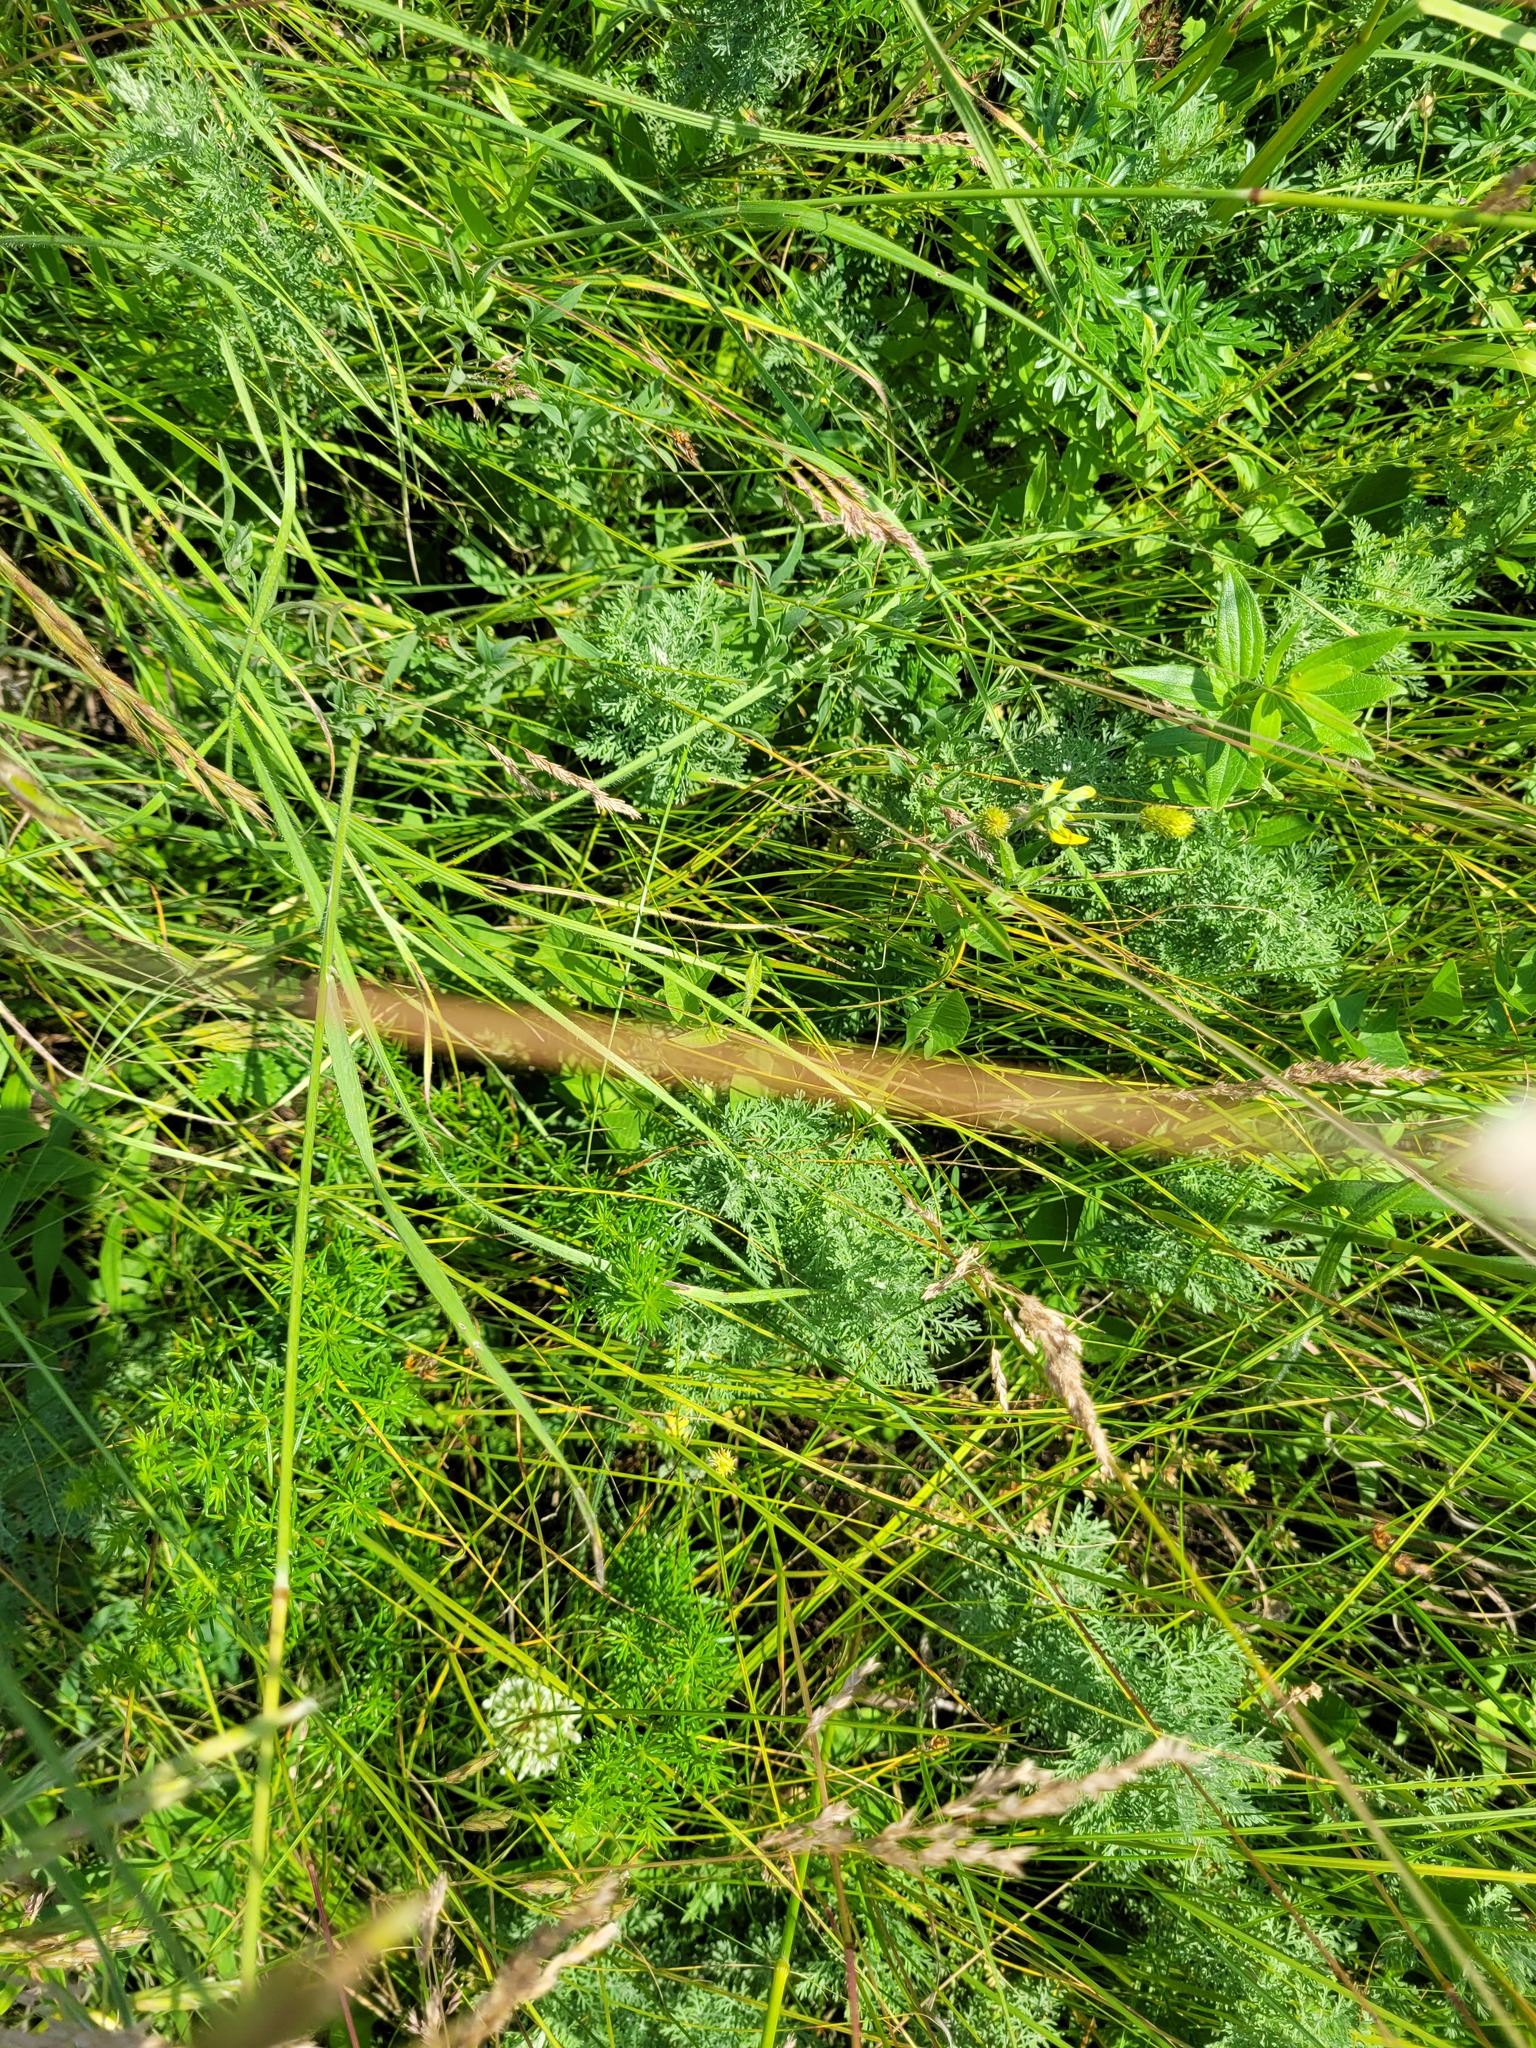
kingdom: Plantae
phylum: Tracheophyta
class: Magnoliopsida
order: Asterales
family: Asteraceae
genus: Artemisia
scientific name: Artemisia pontica
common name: Roman wormwood
